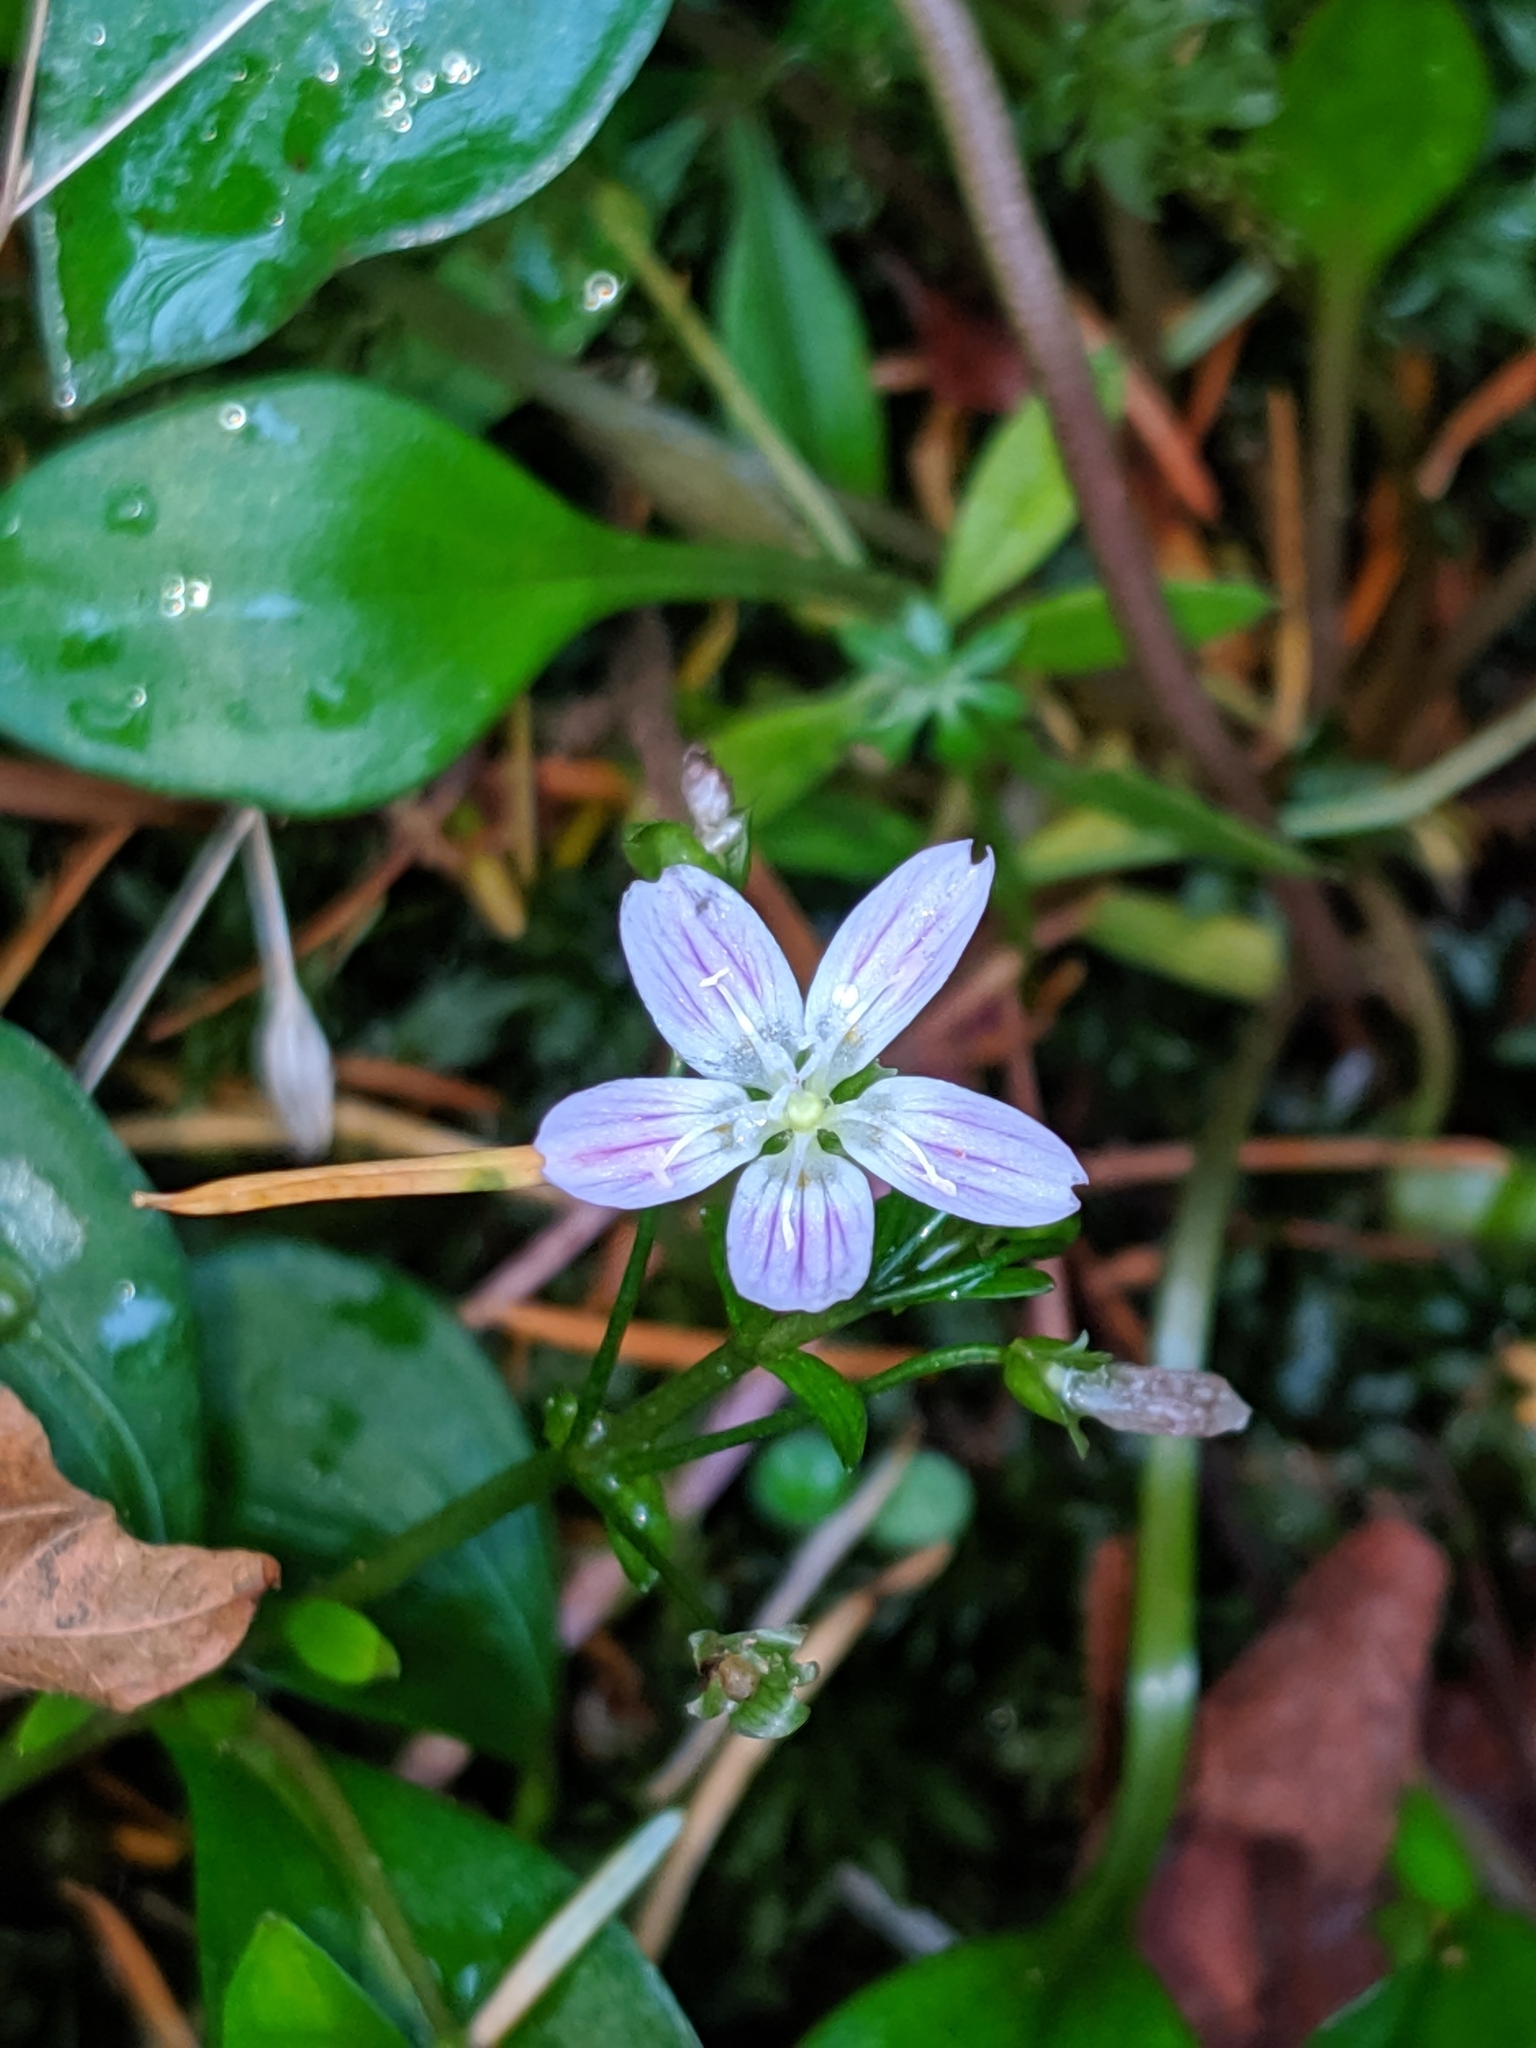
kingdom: Plantae
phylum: Tracheophyta
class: Magnoliopsida
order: Caryophyllales
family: Montiaceae
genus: Claytonia
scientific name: Claytonia sibirica
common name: Pink purslane
